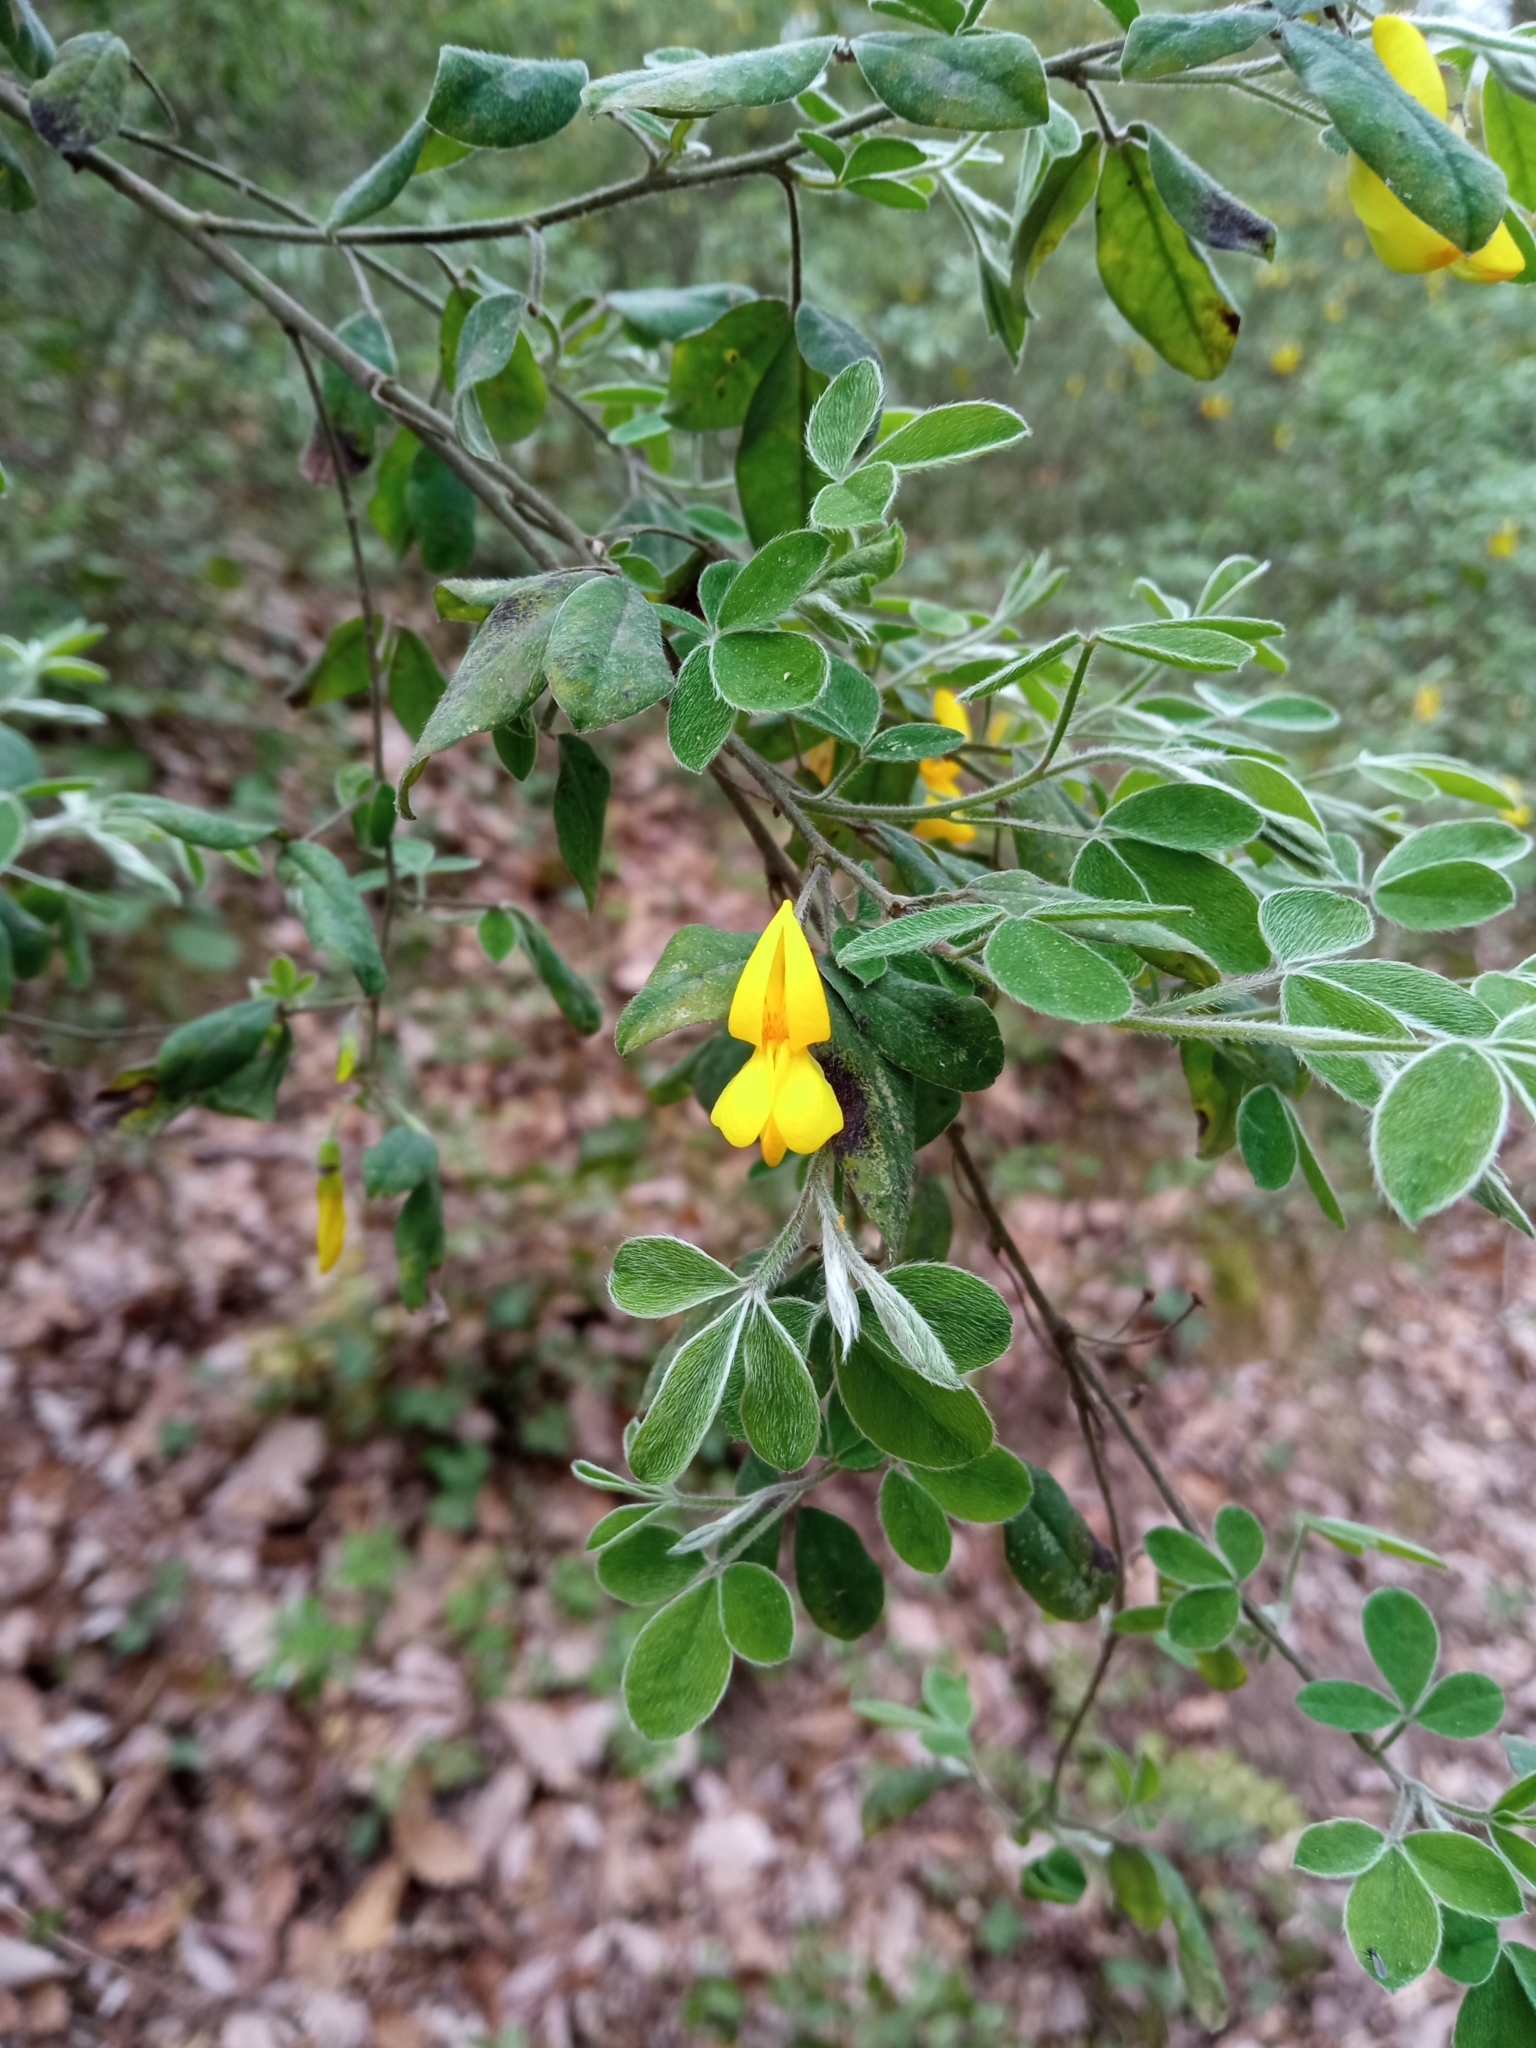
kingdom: Plantae
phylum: Tracheophyta
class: Magnoliopsida
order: Fabales
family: Fabaceae
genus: Cytisus
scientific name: Cytisus villosus
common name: Hairybroom
